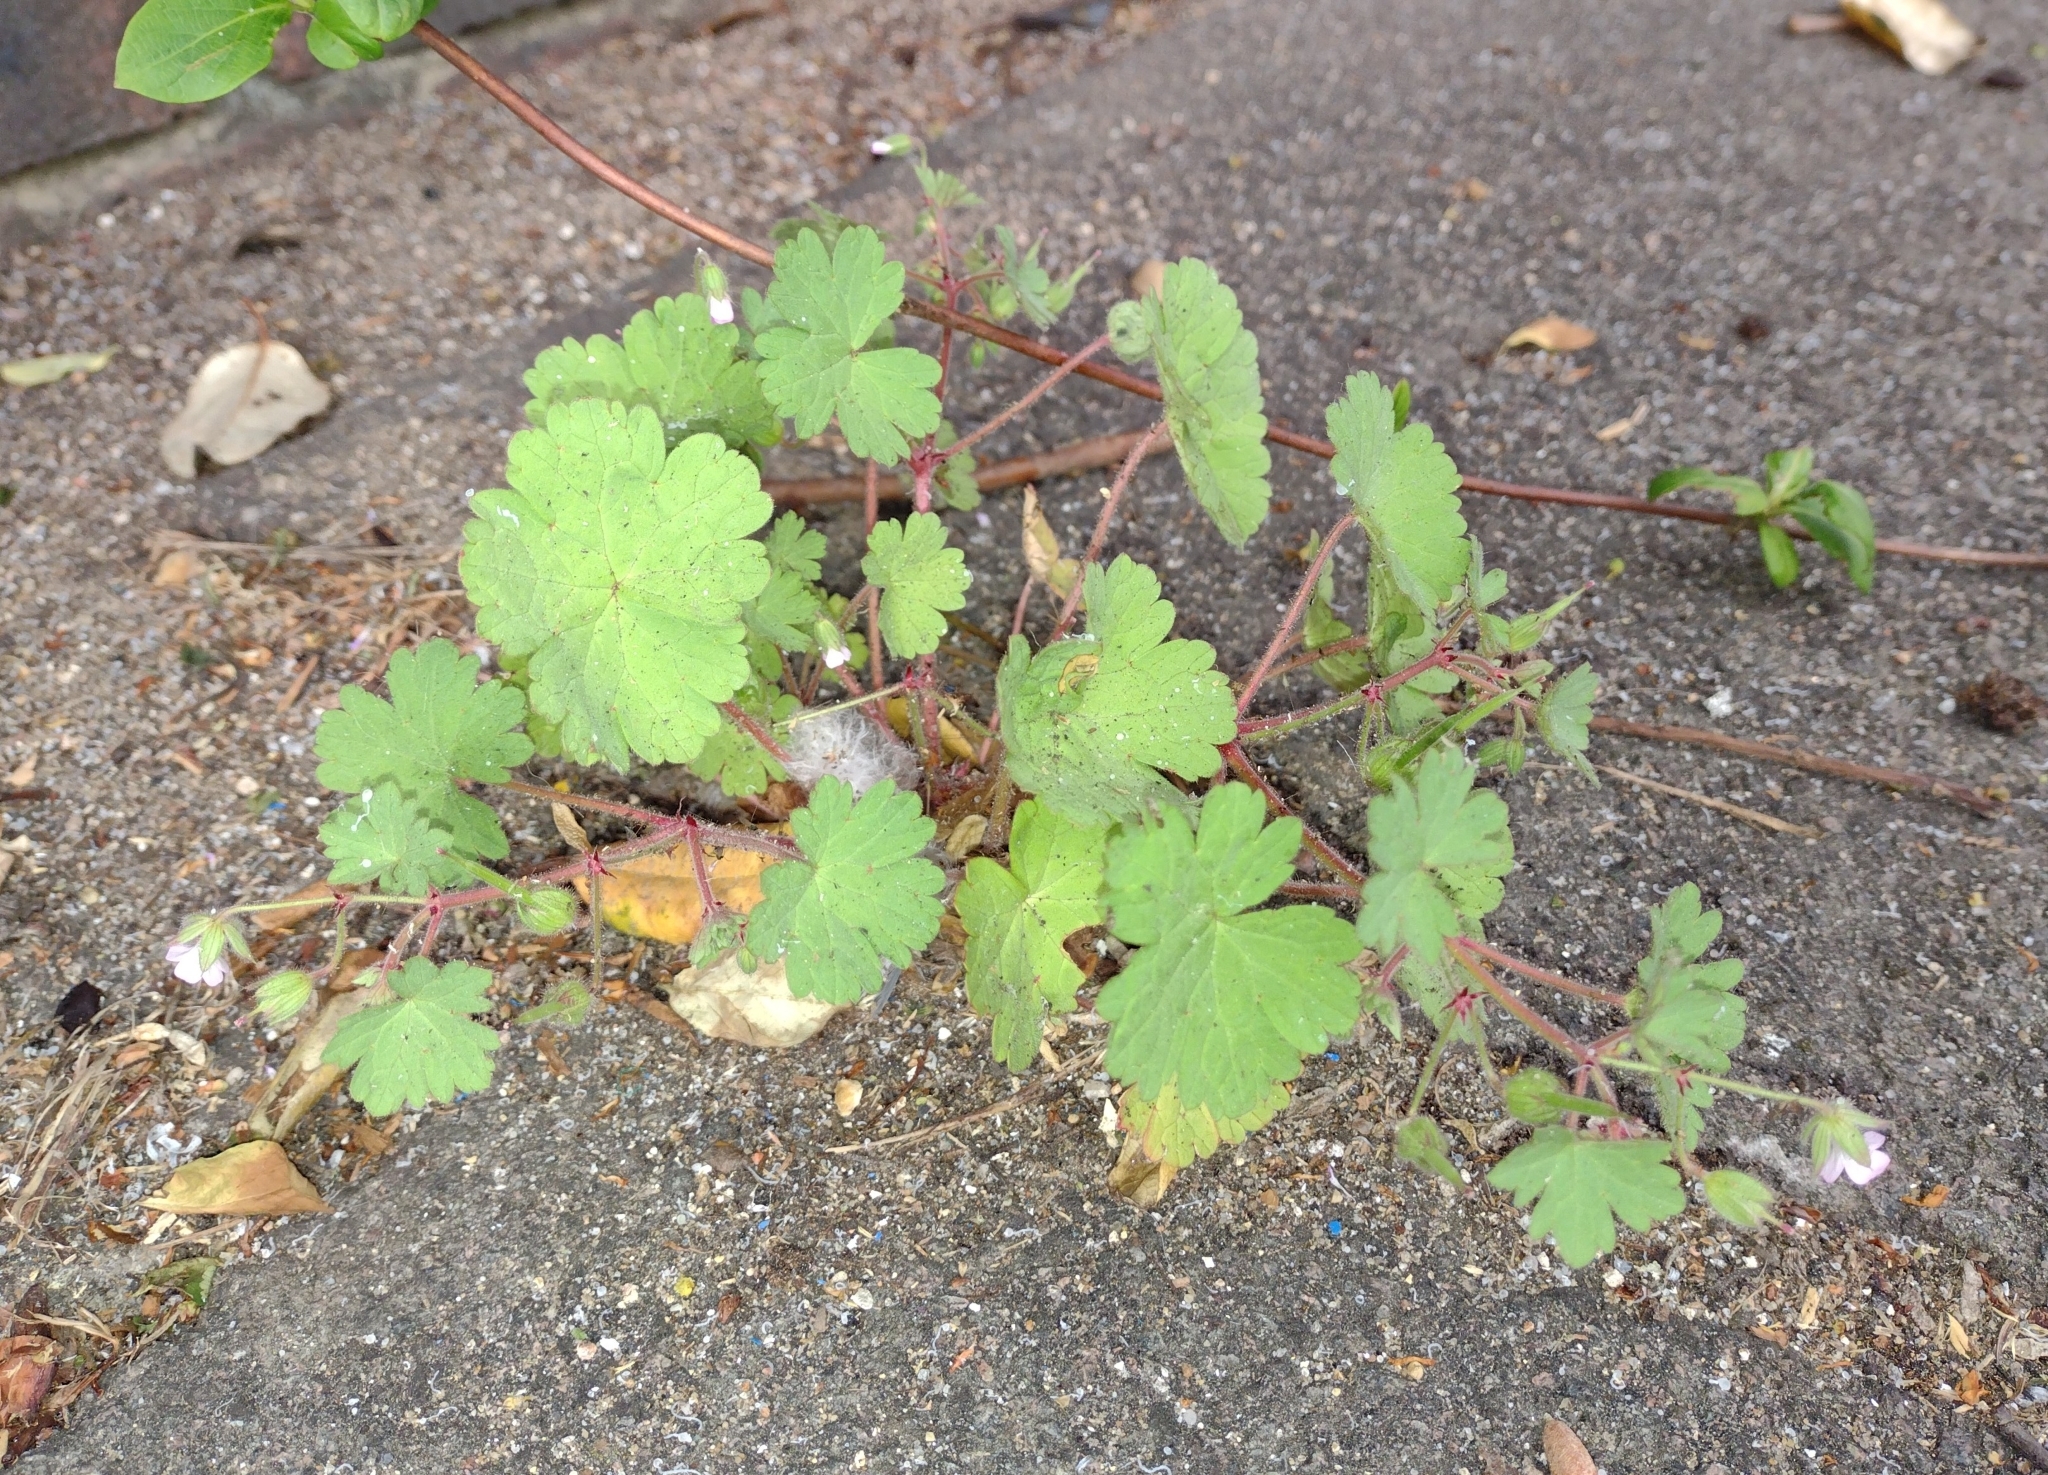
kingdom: Plantae
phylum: Tracheophyta
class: Magnoliopsida
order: Geraniales
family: Geraniaceae
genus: Geranium
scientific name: Geranium rotundifolium
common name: Round-leaved crane's-bill
